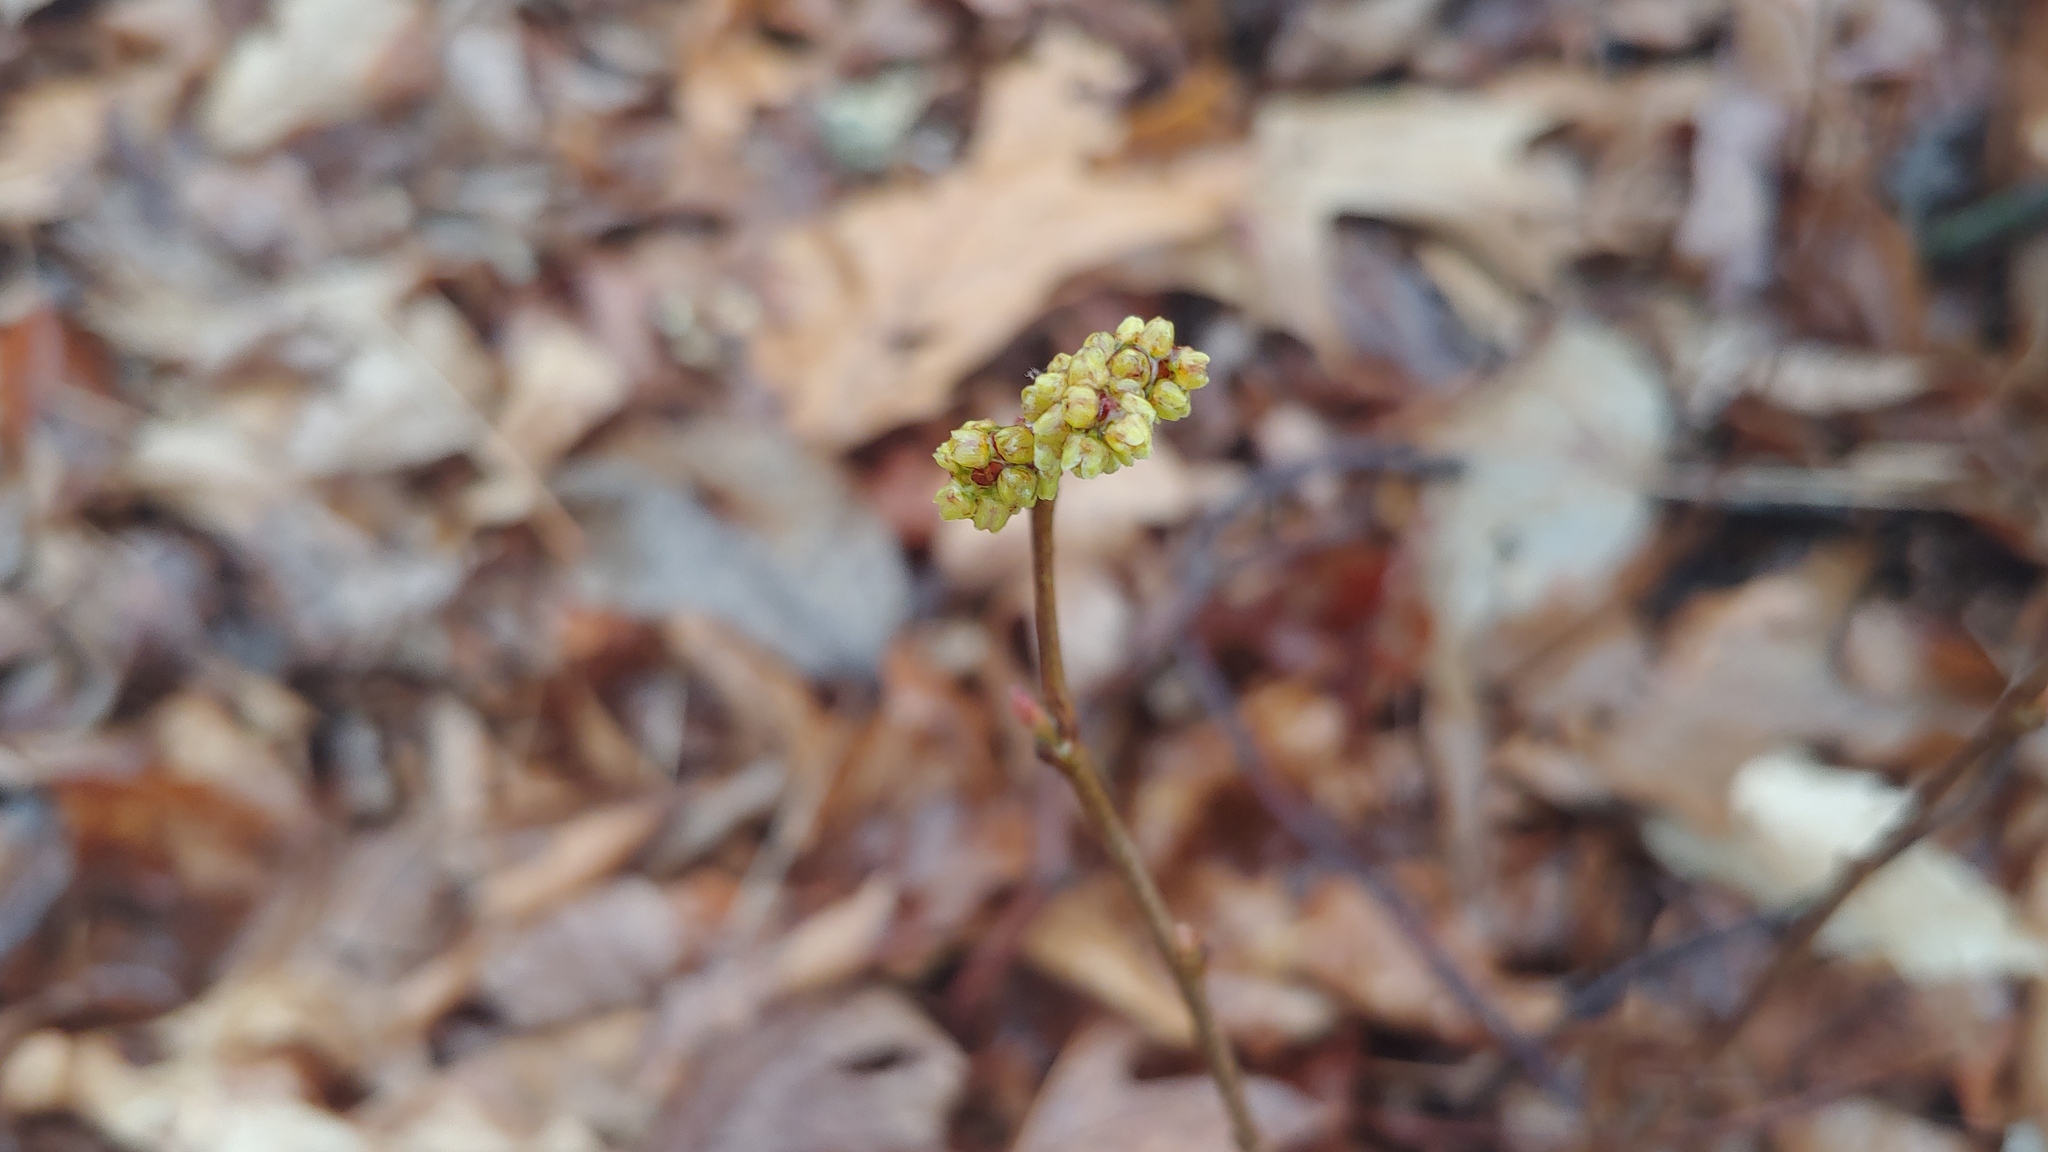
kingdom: Plantae
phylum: Tracheophyta
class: Magnoliopsida
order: Sapindales
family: Anacardiaceae
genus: Rhus
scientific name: Rhus aromatica
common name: Aromatic sumac
